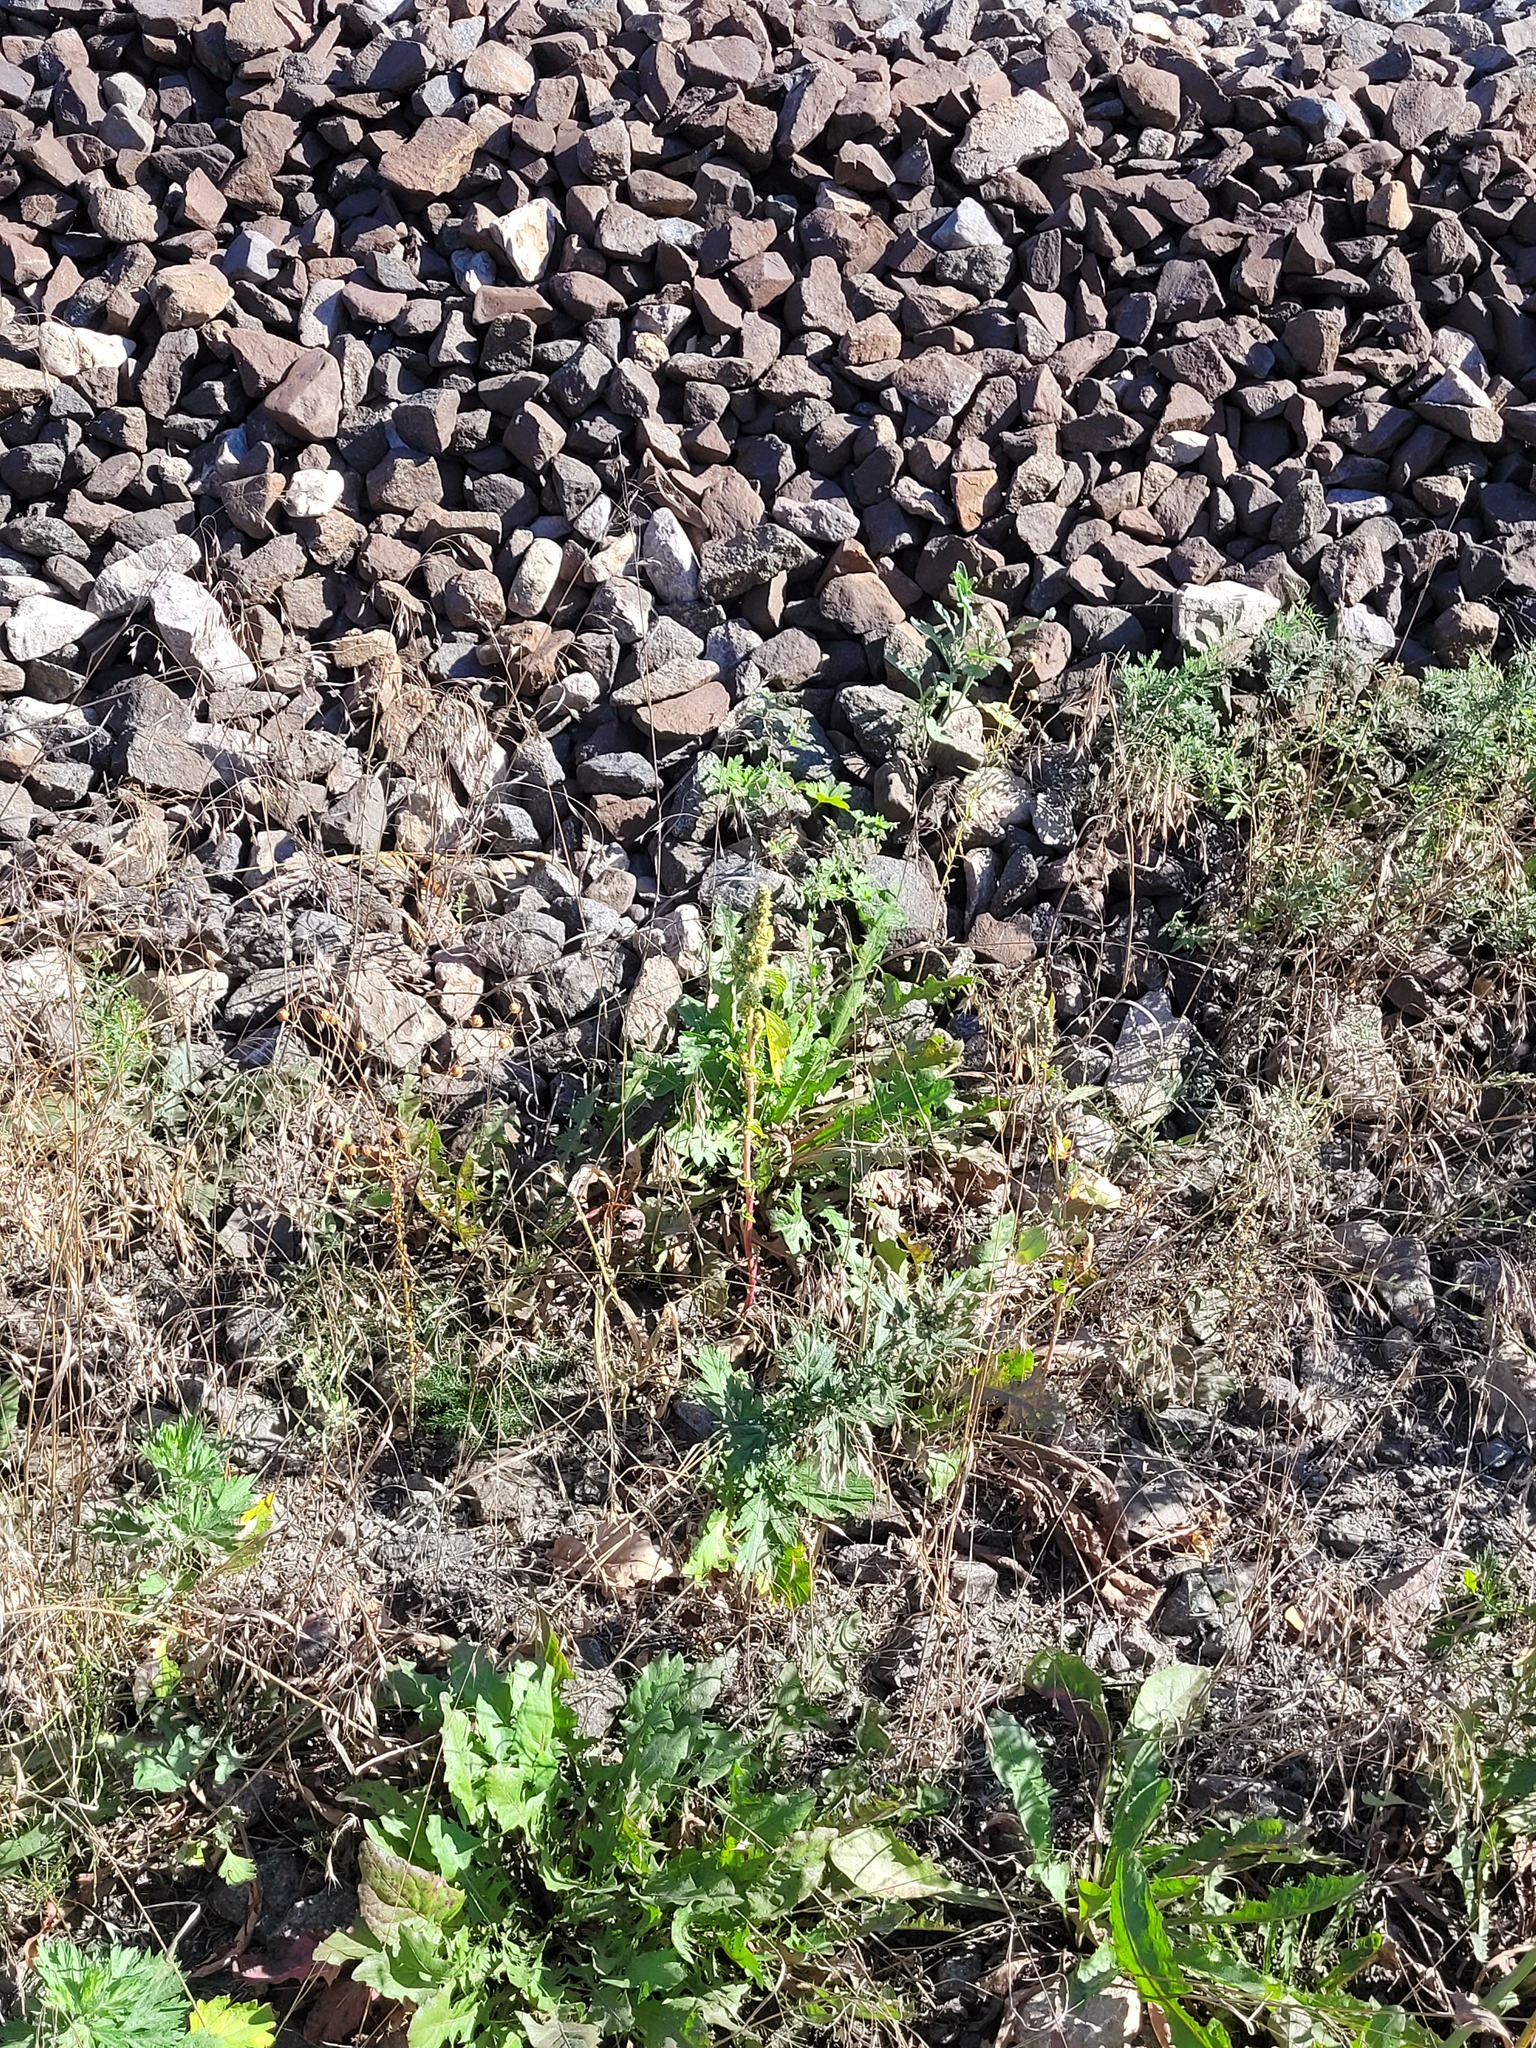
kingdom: Plantae
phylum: Tracheophyta
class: Magnoliopsida
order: Caryophyllales
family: Amaranthaceae
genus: Amaranthus
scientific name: Amaranthus retroflexus
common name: Redroot amaranth
